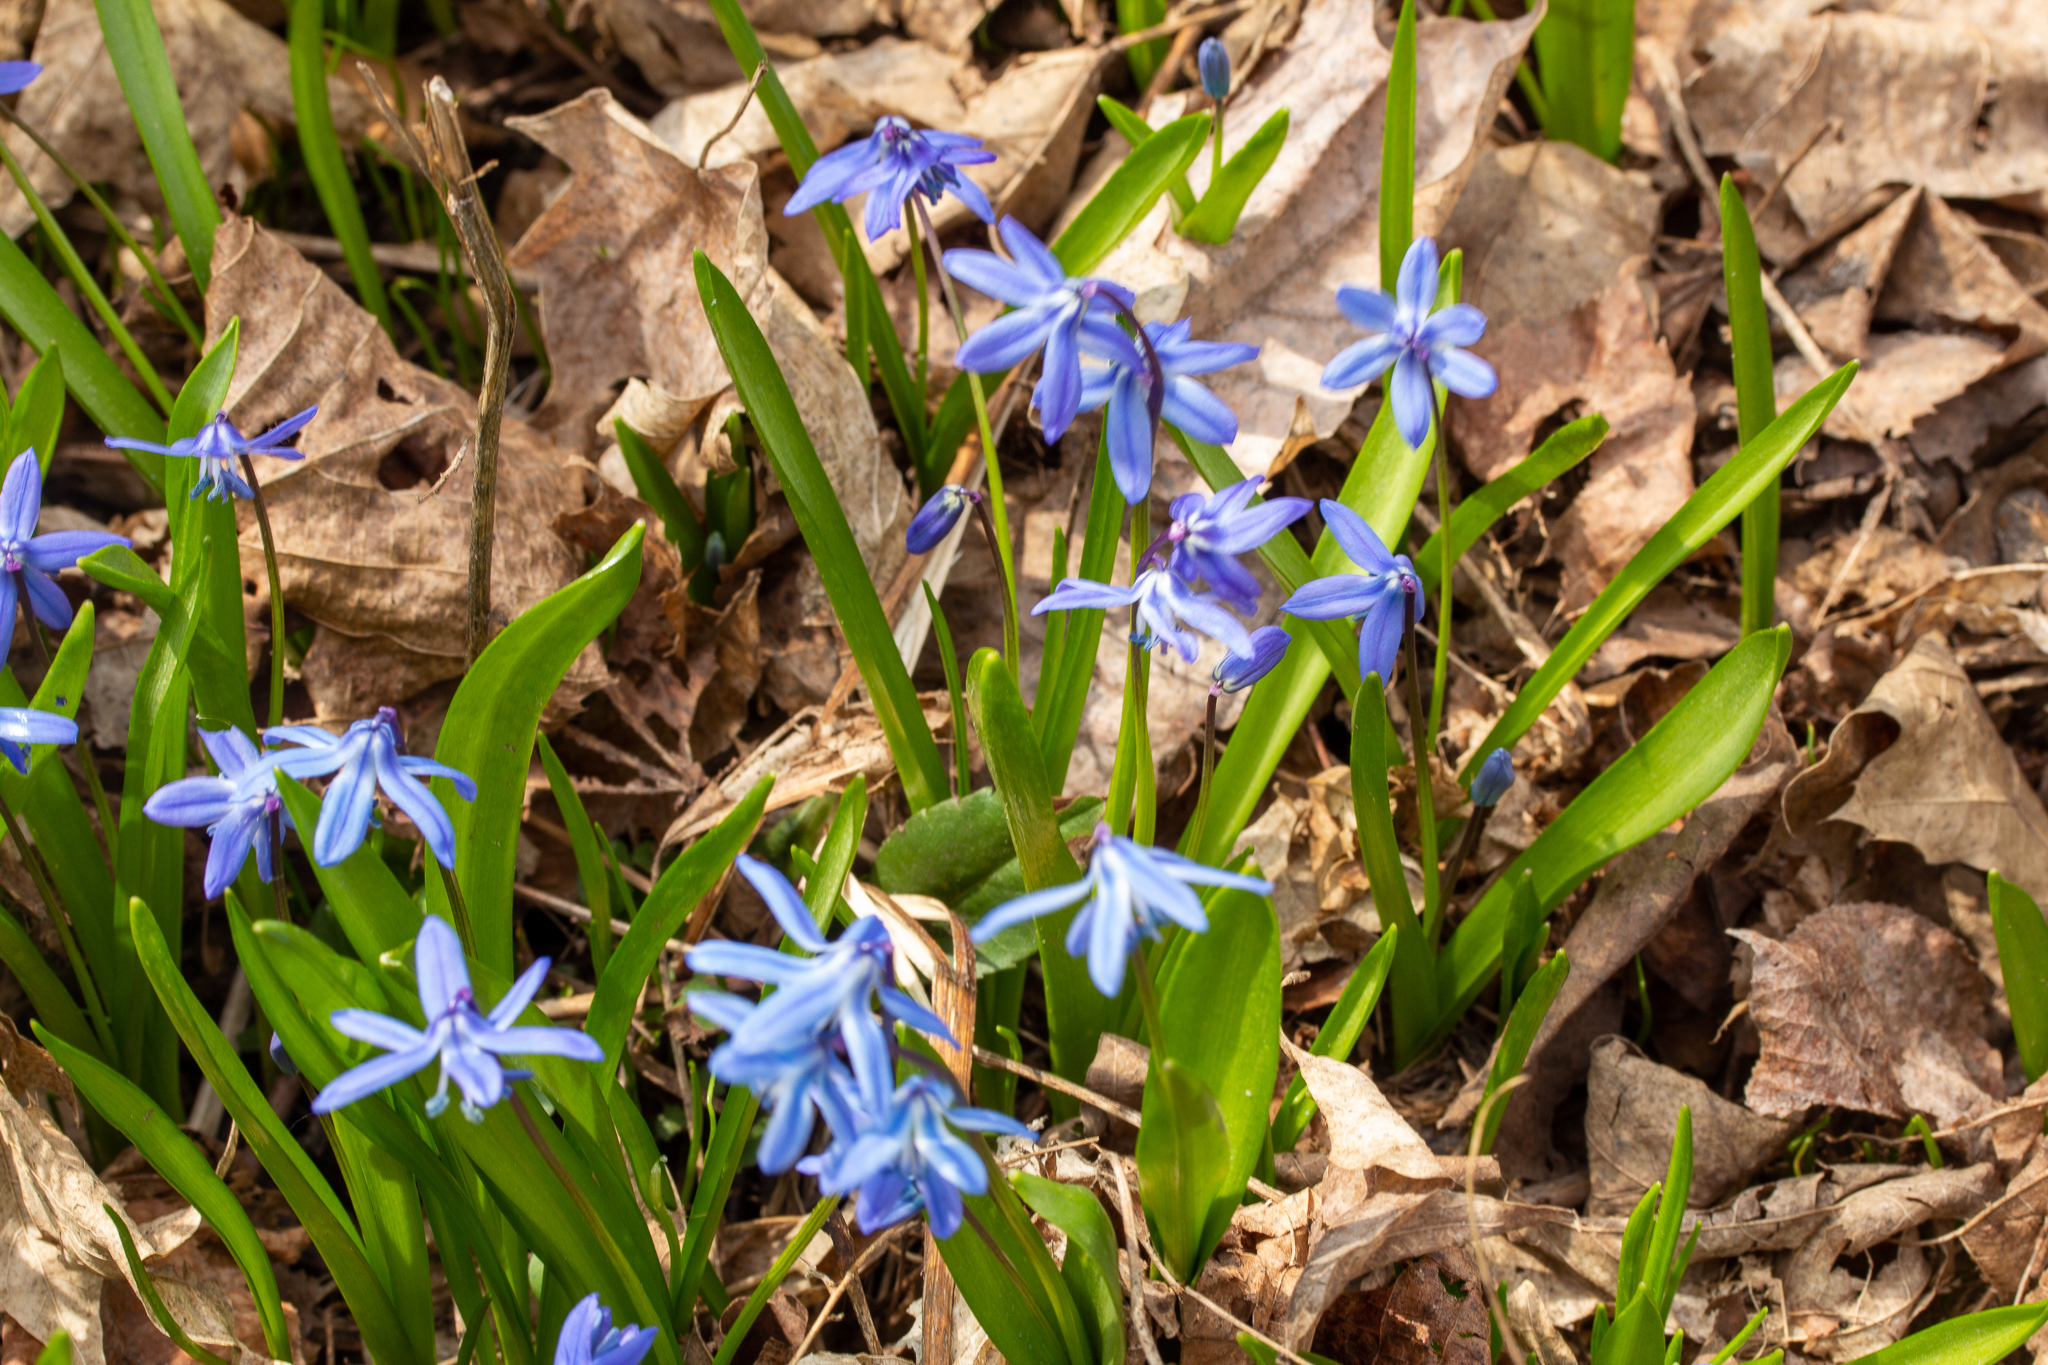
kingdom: Plantae
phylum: Tracheophyta
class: Liliopsida
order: Asparagales
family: Asparagaceae
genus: Scilla
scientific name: Scilla siberica
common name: Siberian squill
